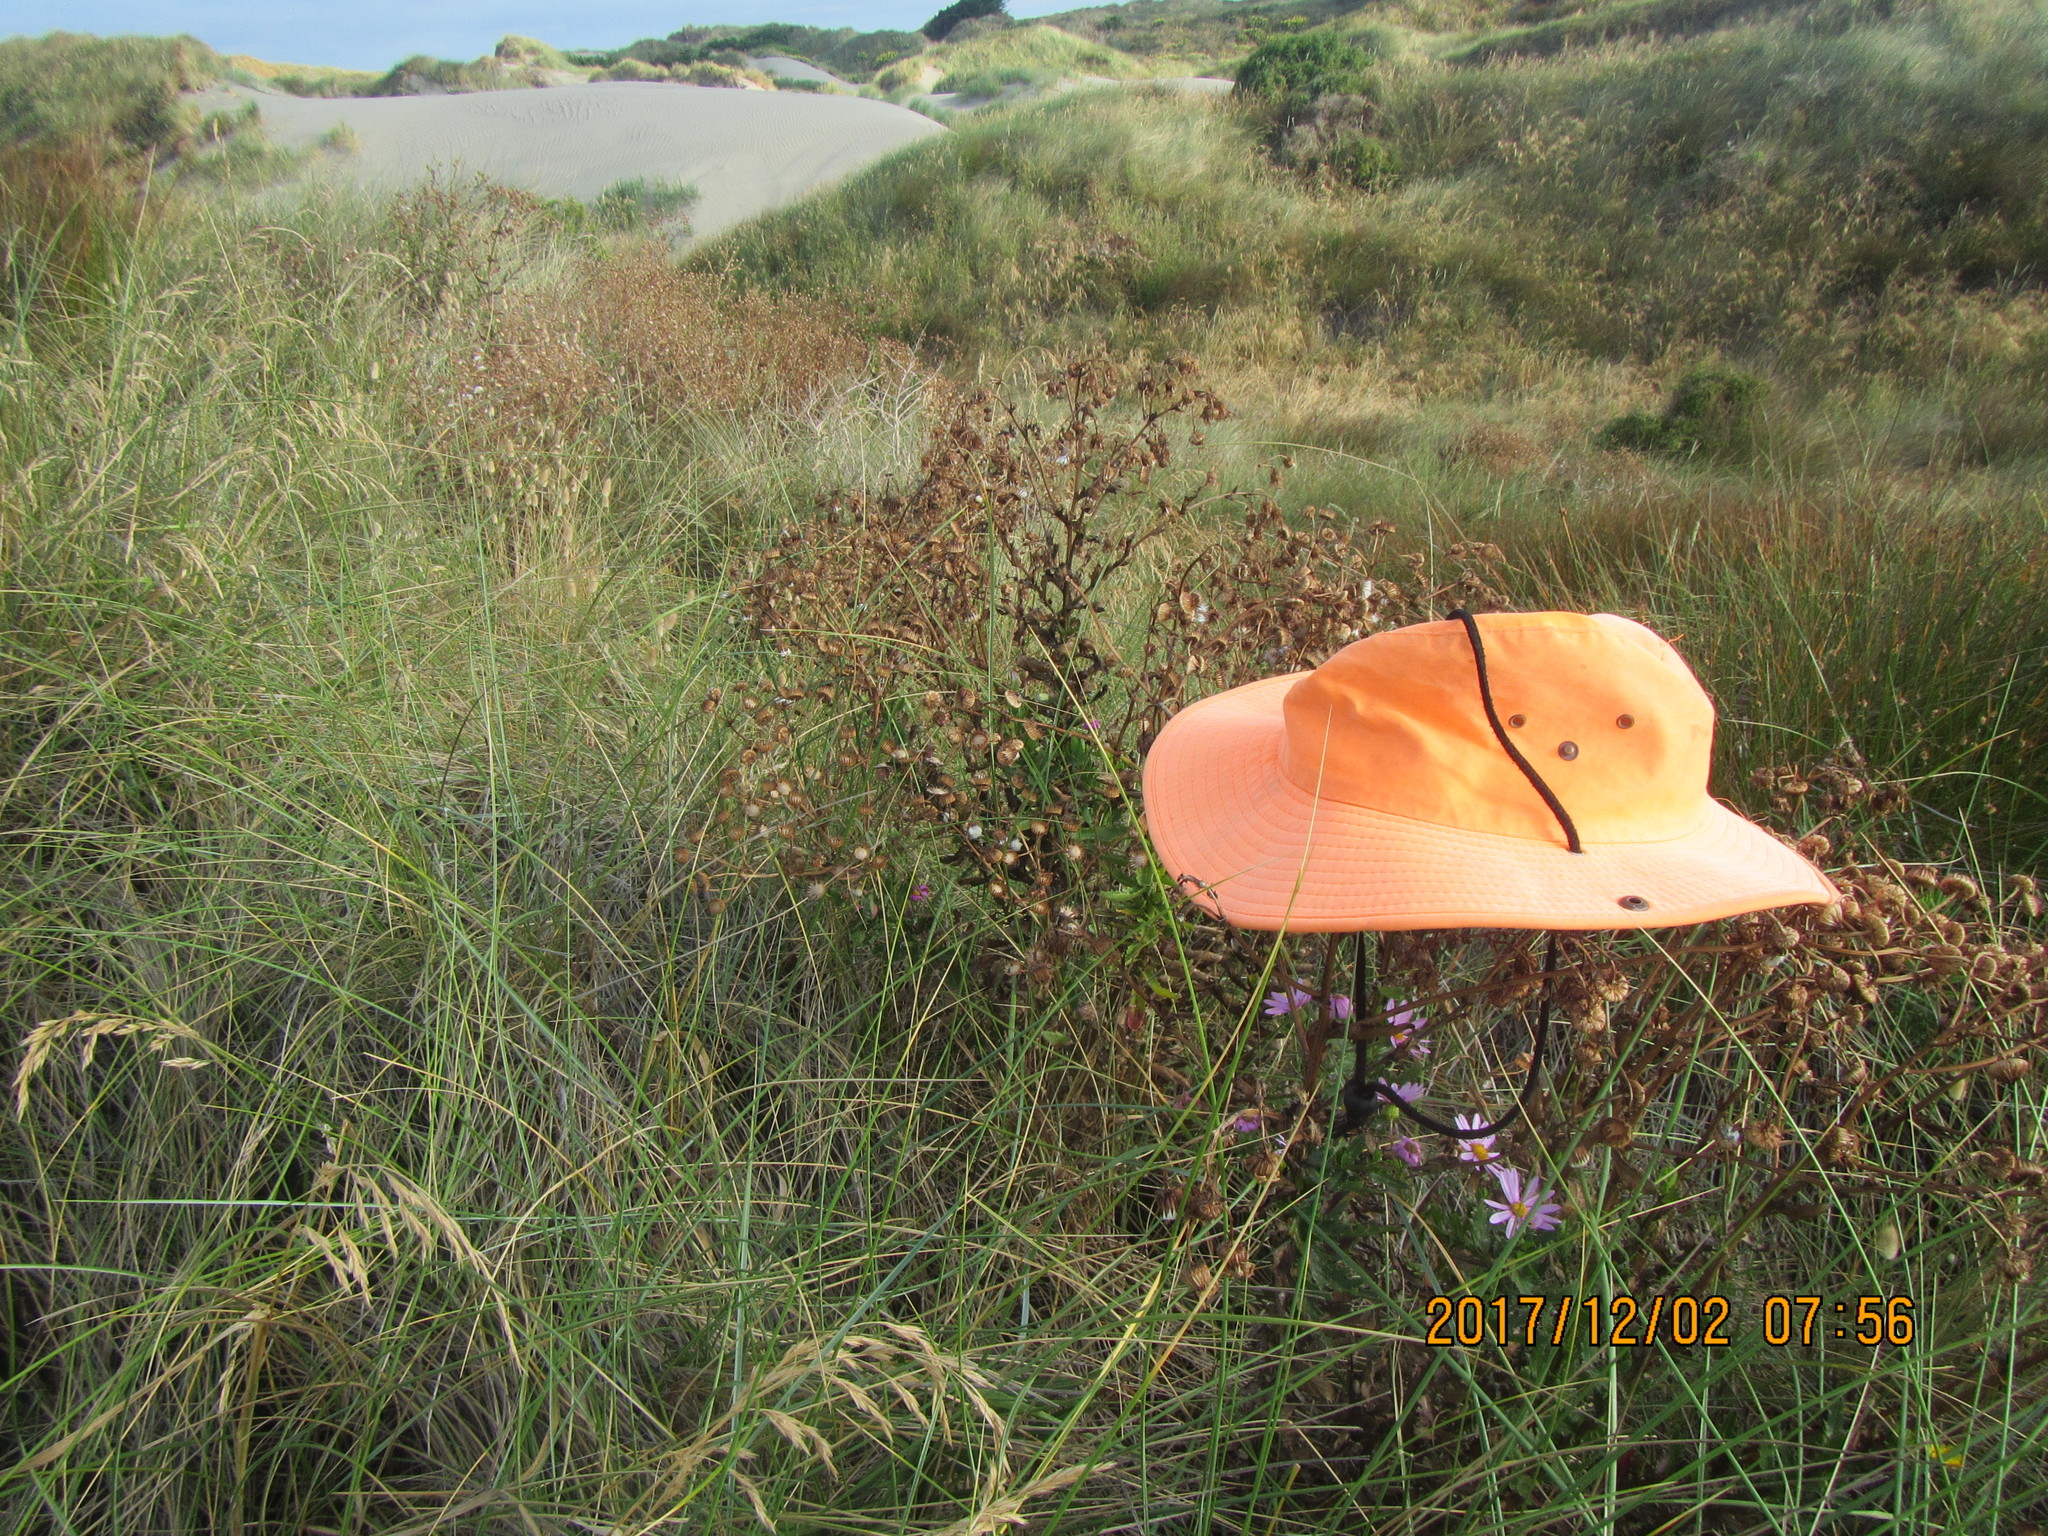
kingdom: Plantae
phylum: Tracheophyta
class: Magnoliopsida
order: Asterales
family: Asteraceae
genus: Senecio
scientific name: Senecio glastifolius
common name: Woad-leaved ragwort
